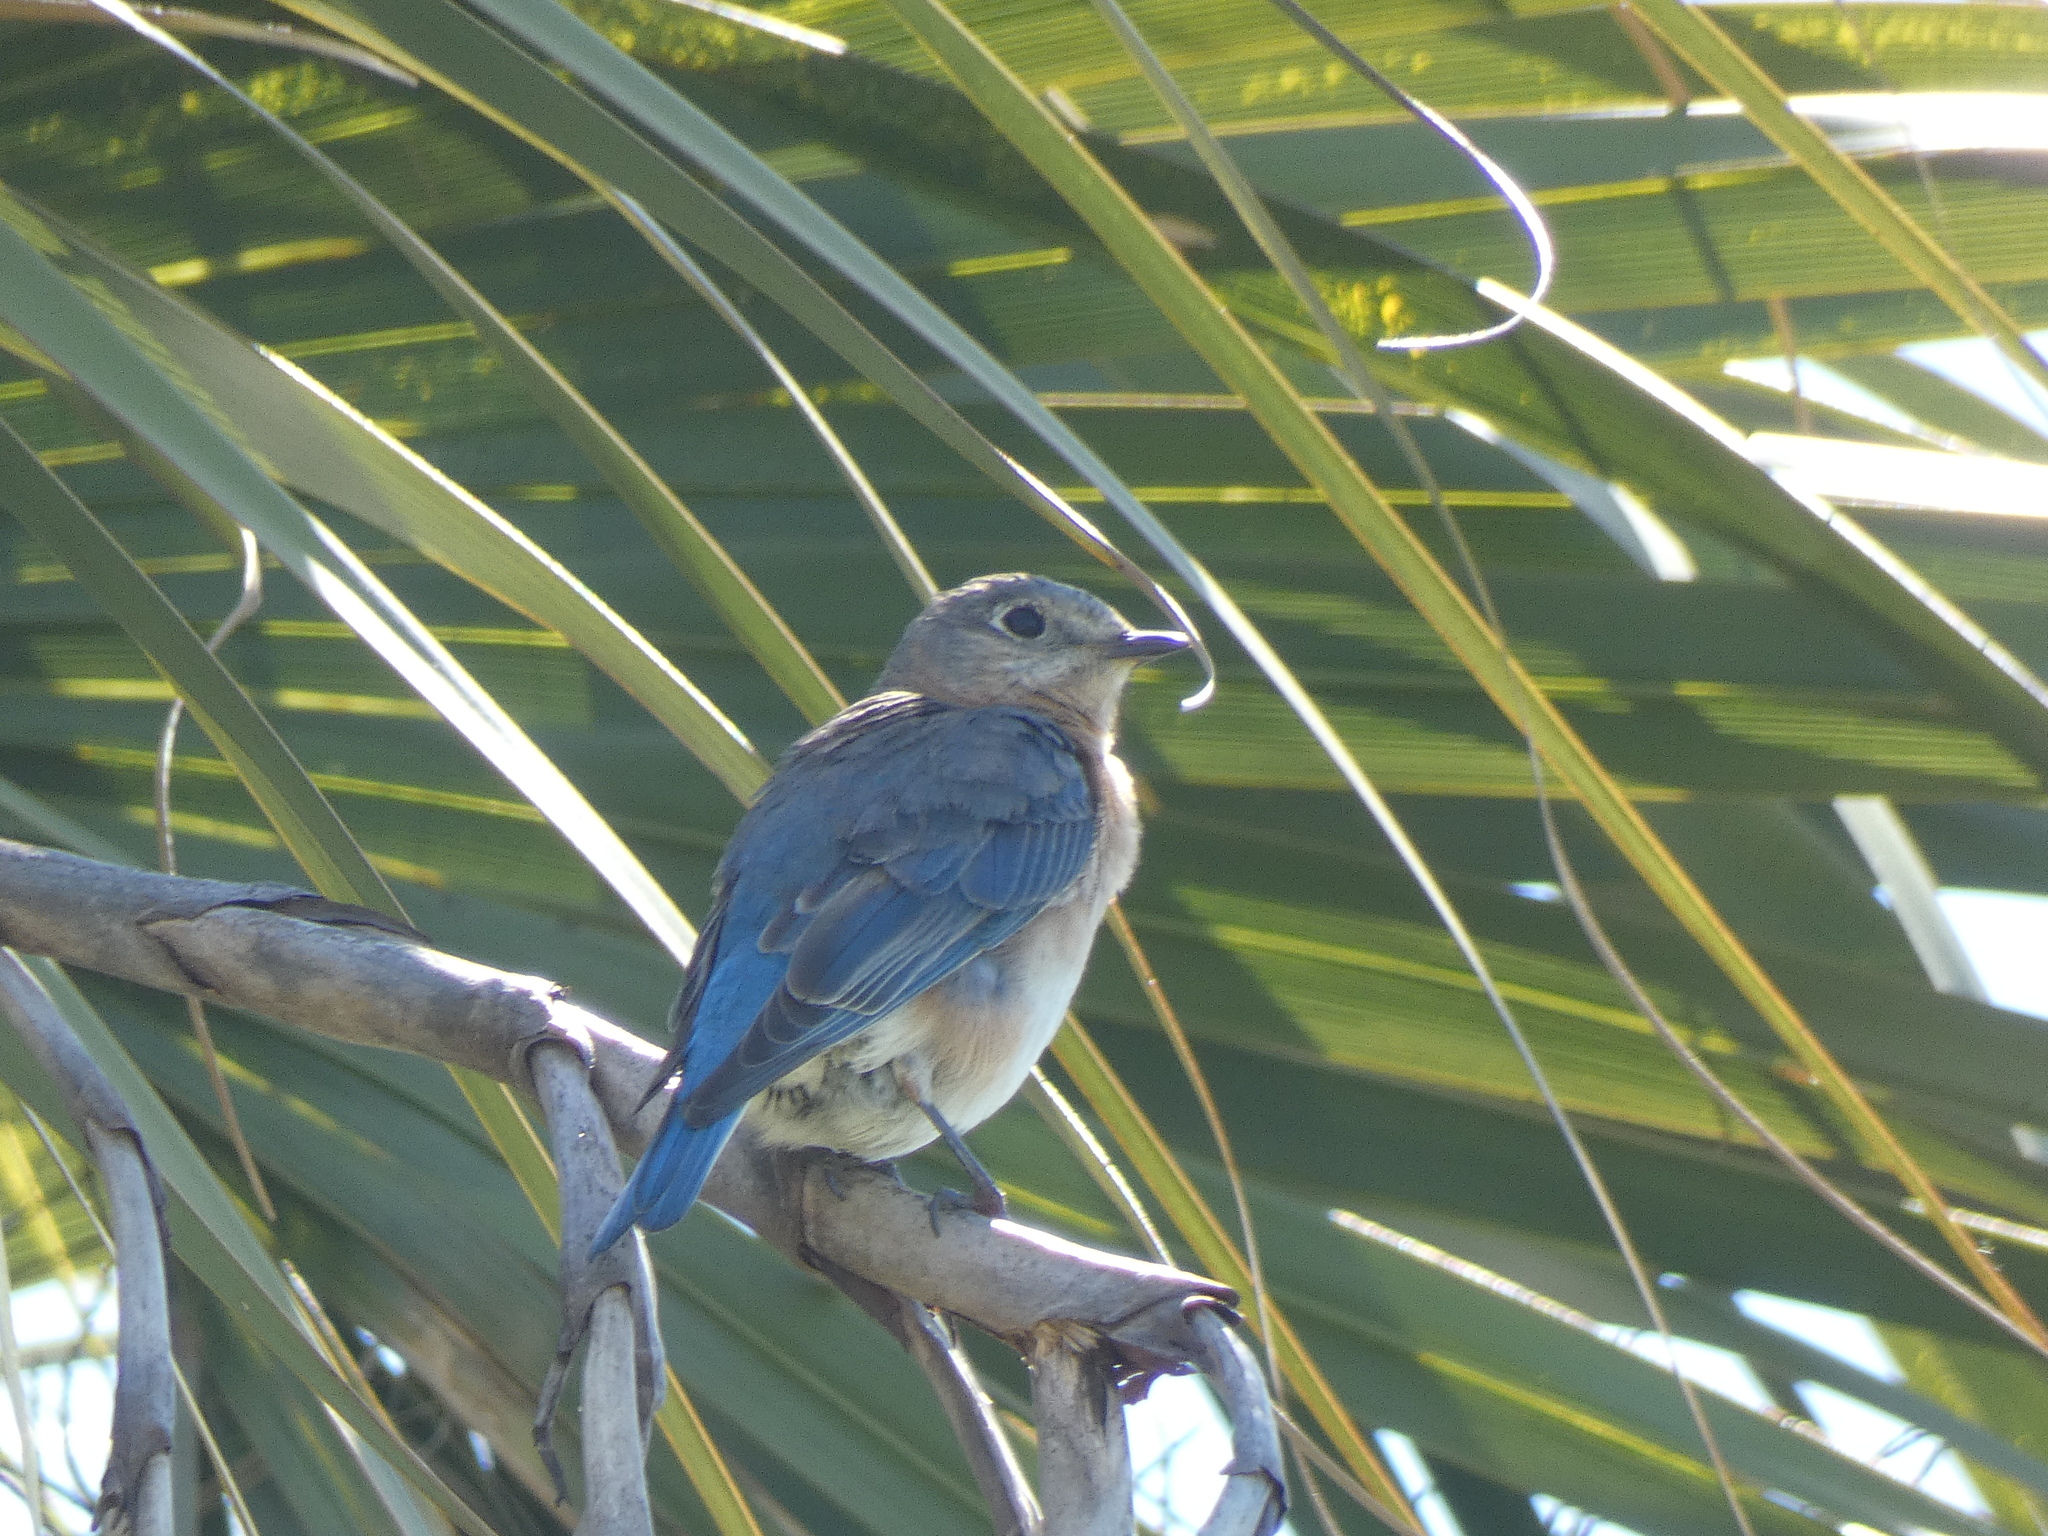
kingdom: Animalia
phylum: Chordata
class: Aves
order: Passeriformes
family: Turdidae
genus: Sialia
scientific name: Sialia sialis
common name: Eastern bluebird
